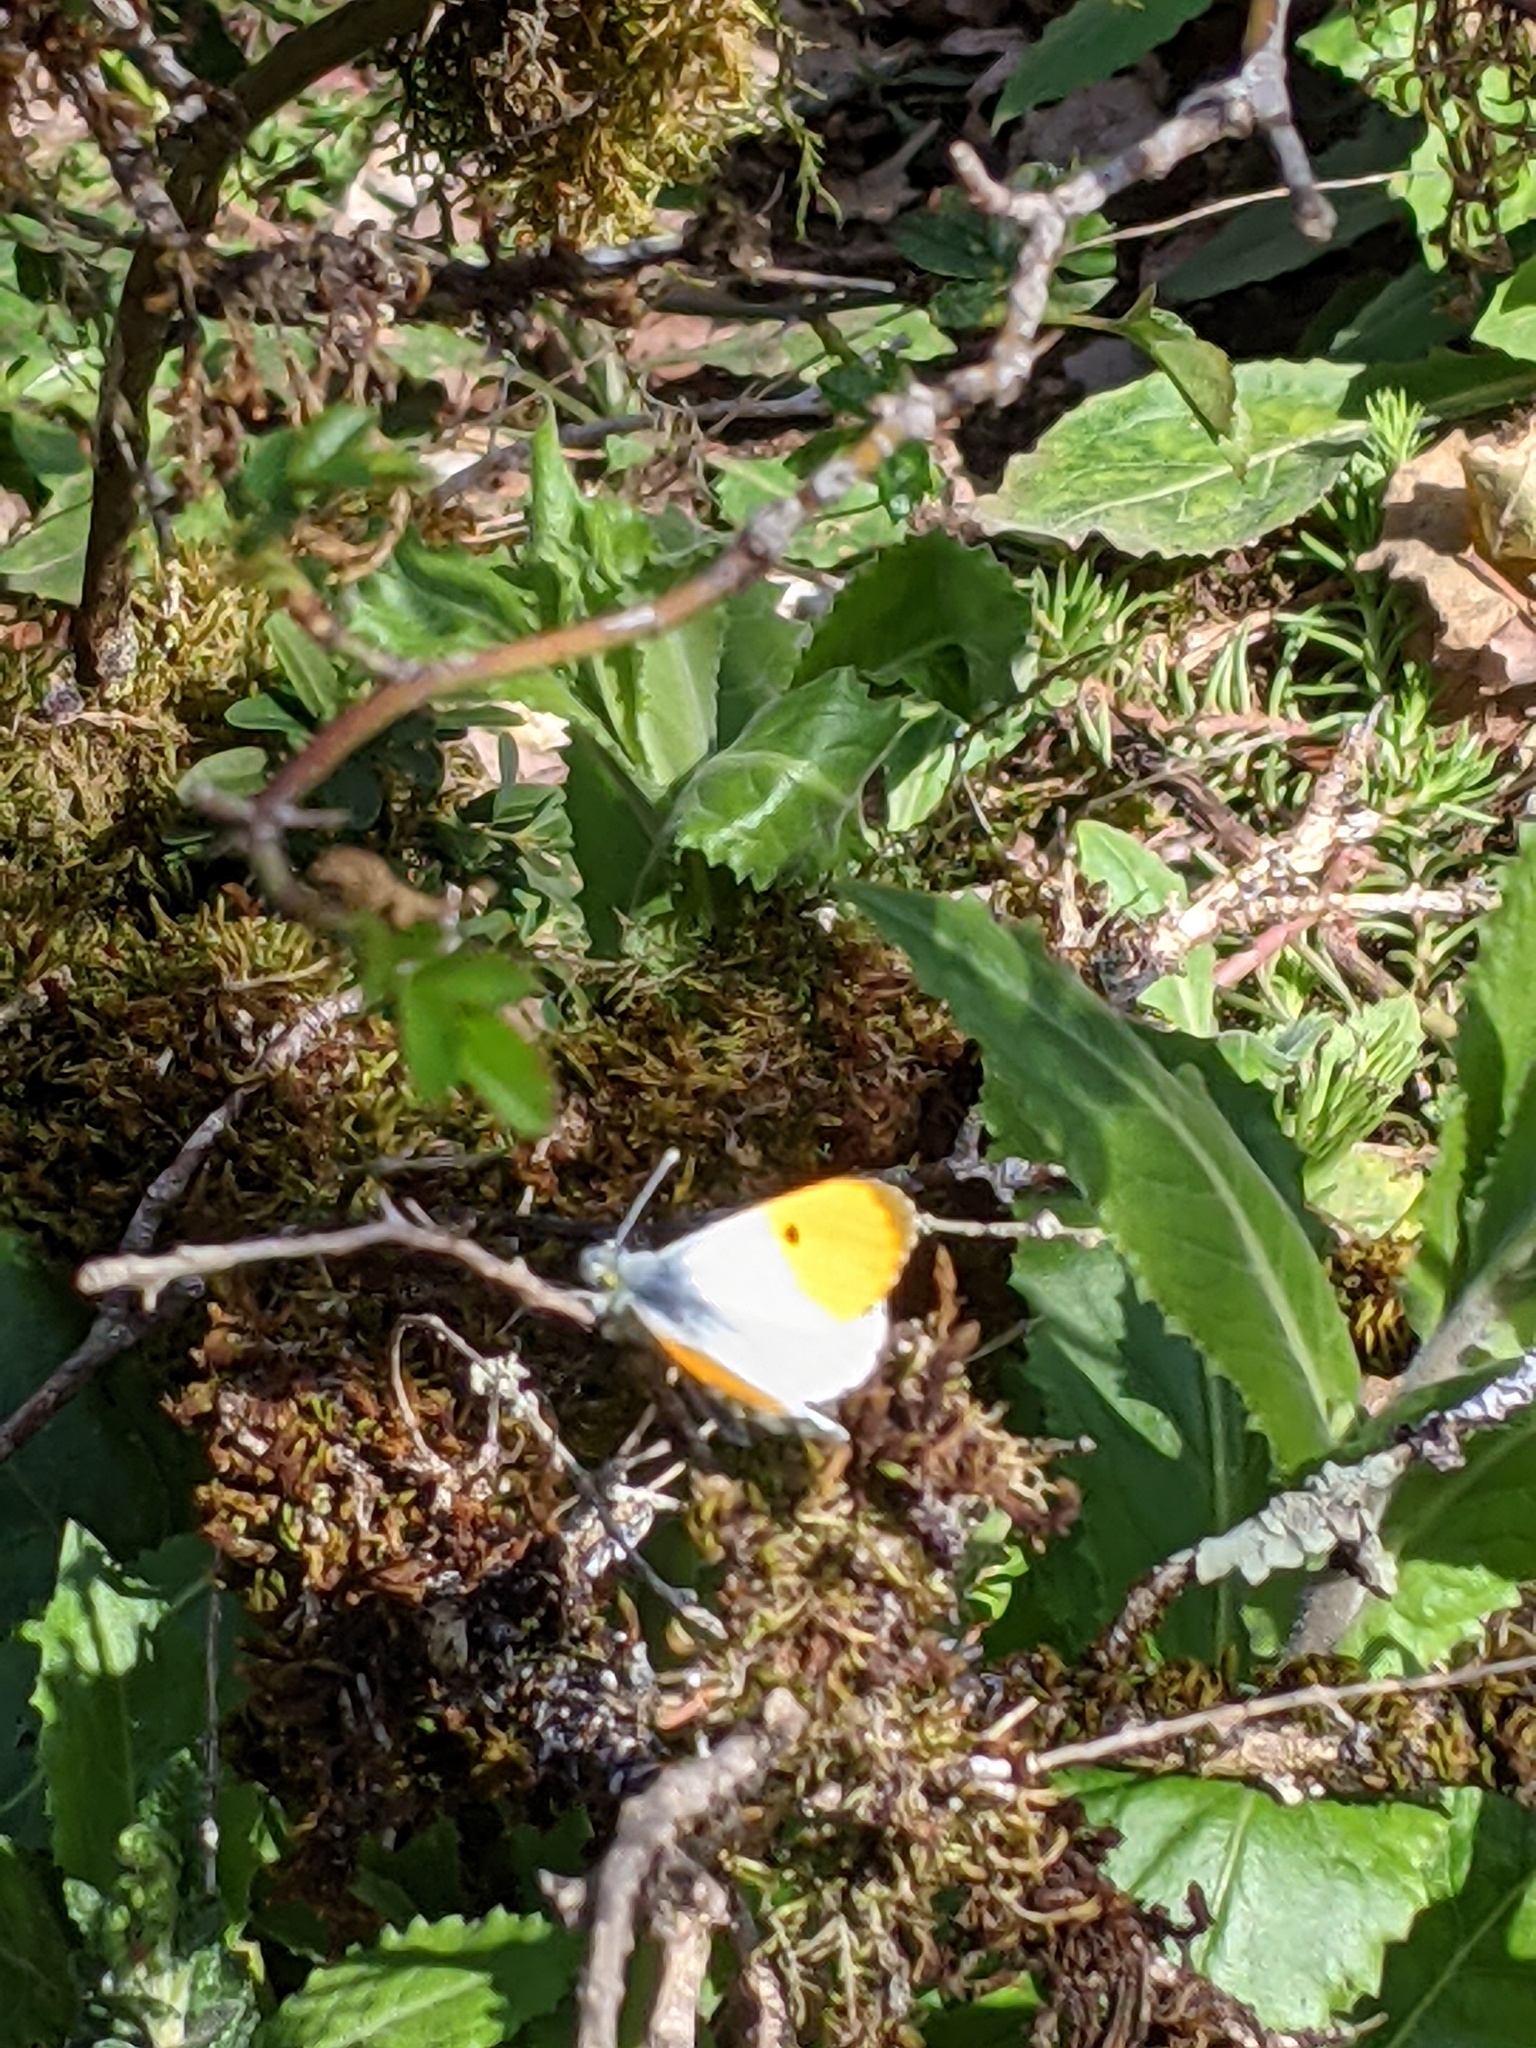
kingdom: Animalia
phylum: Arthropoda
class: Insecta
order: Lepidoptera
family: Pieridae
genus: Anthocharis
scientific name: Anthocharis cardamines
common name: Orange-tip
